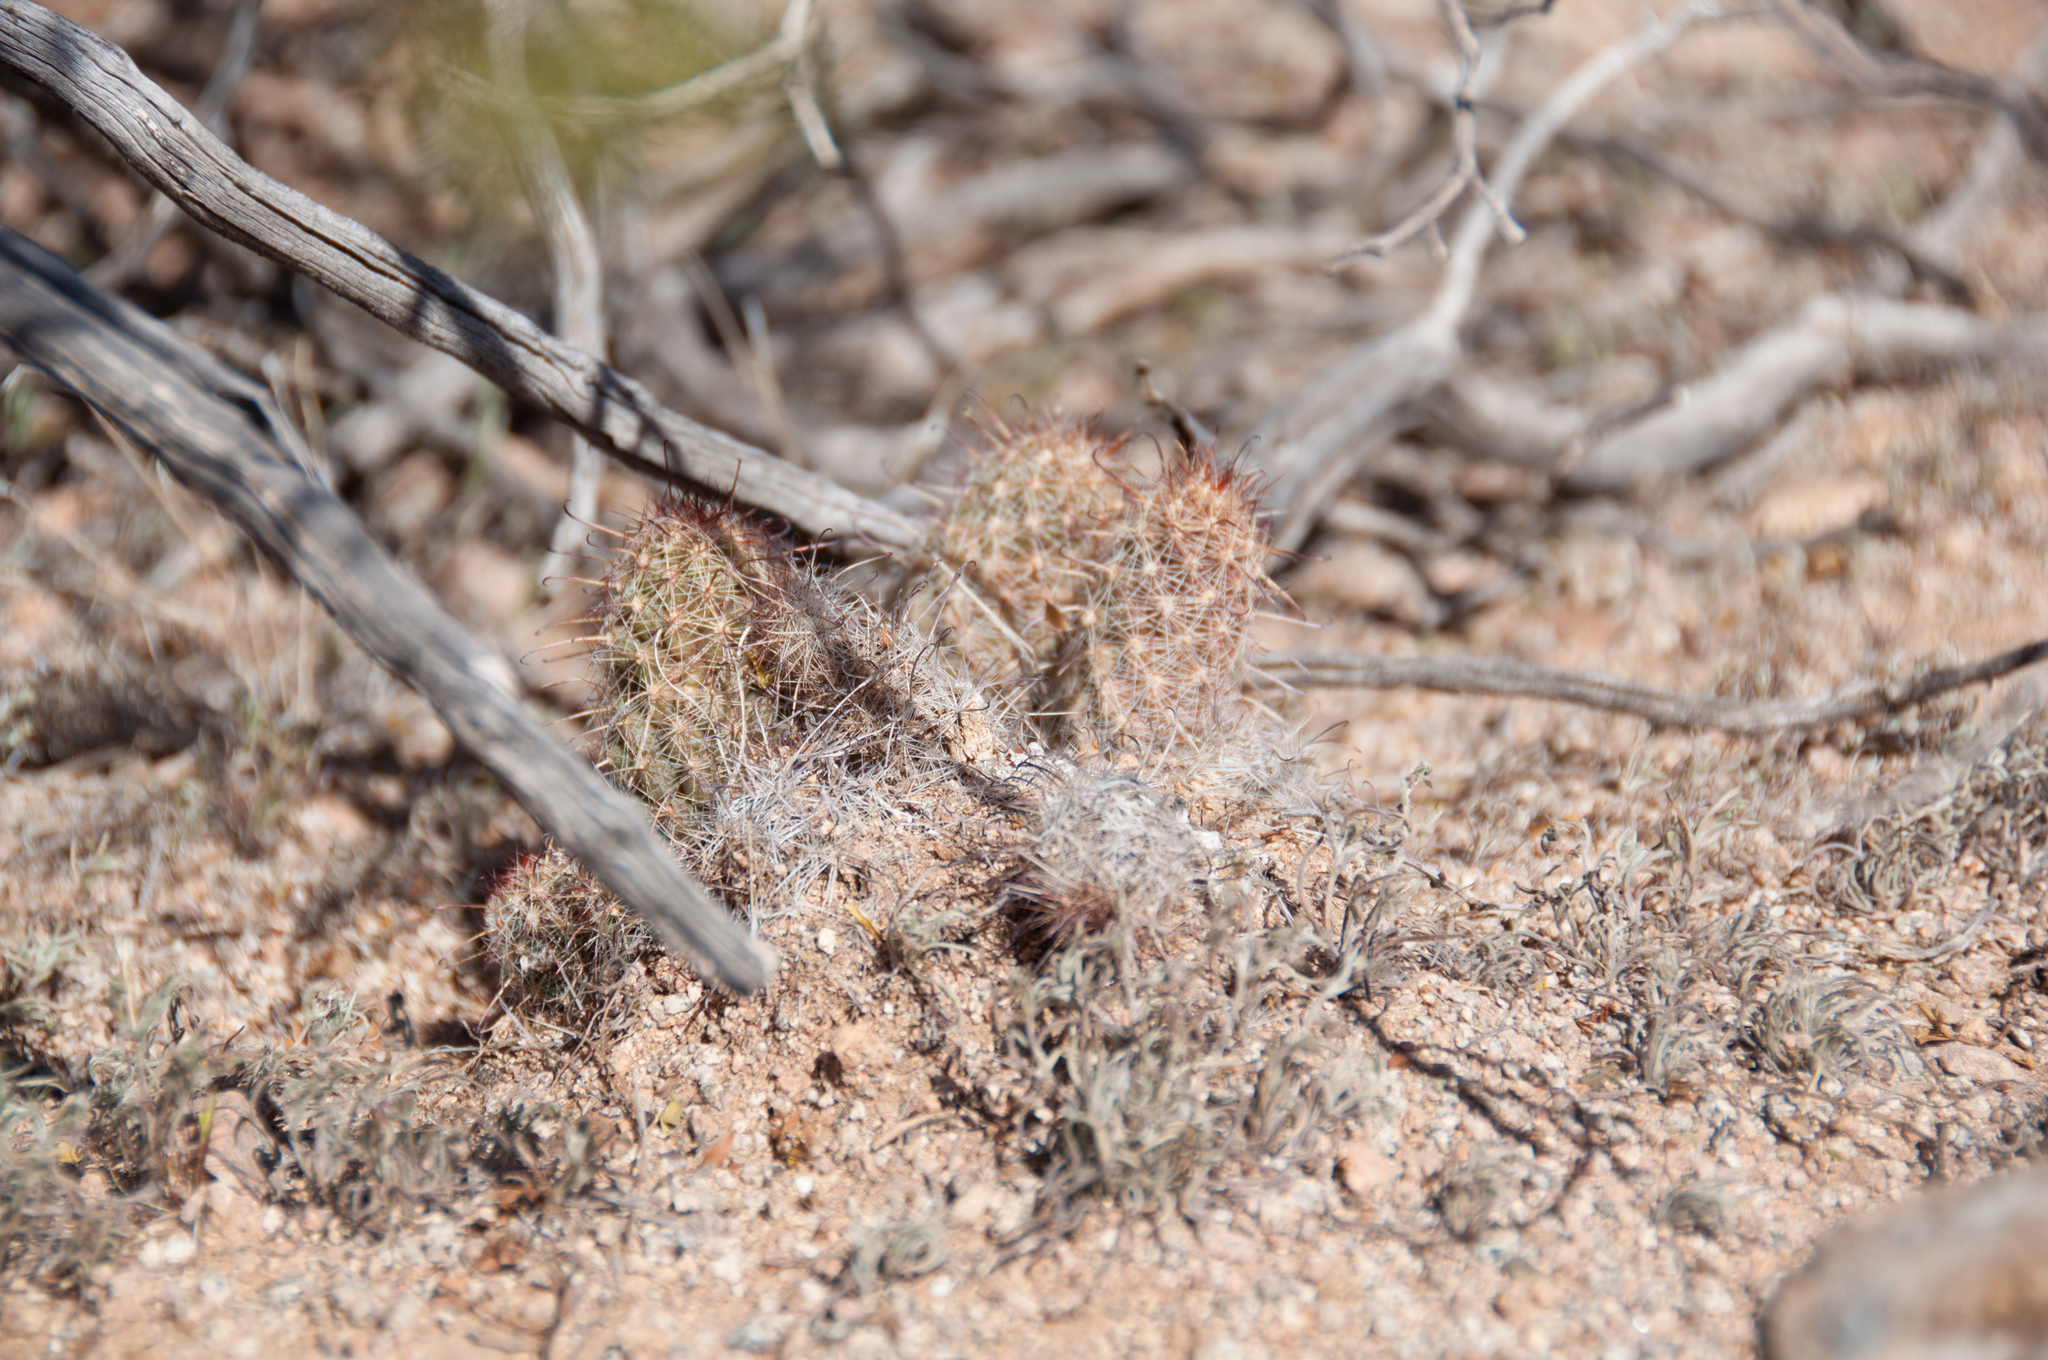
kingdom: Plantae
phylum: Tracheophyta
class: Magnoliopsida
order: Caryophyllales
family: Cactaceae
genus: Cochemiea
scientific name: Cochemiea thornberi
